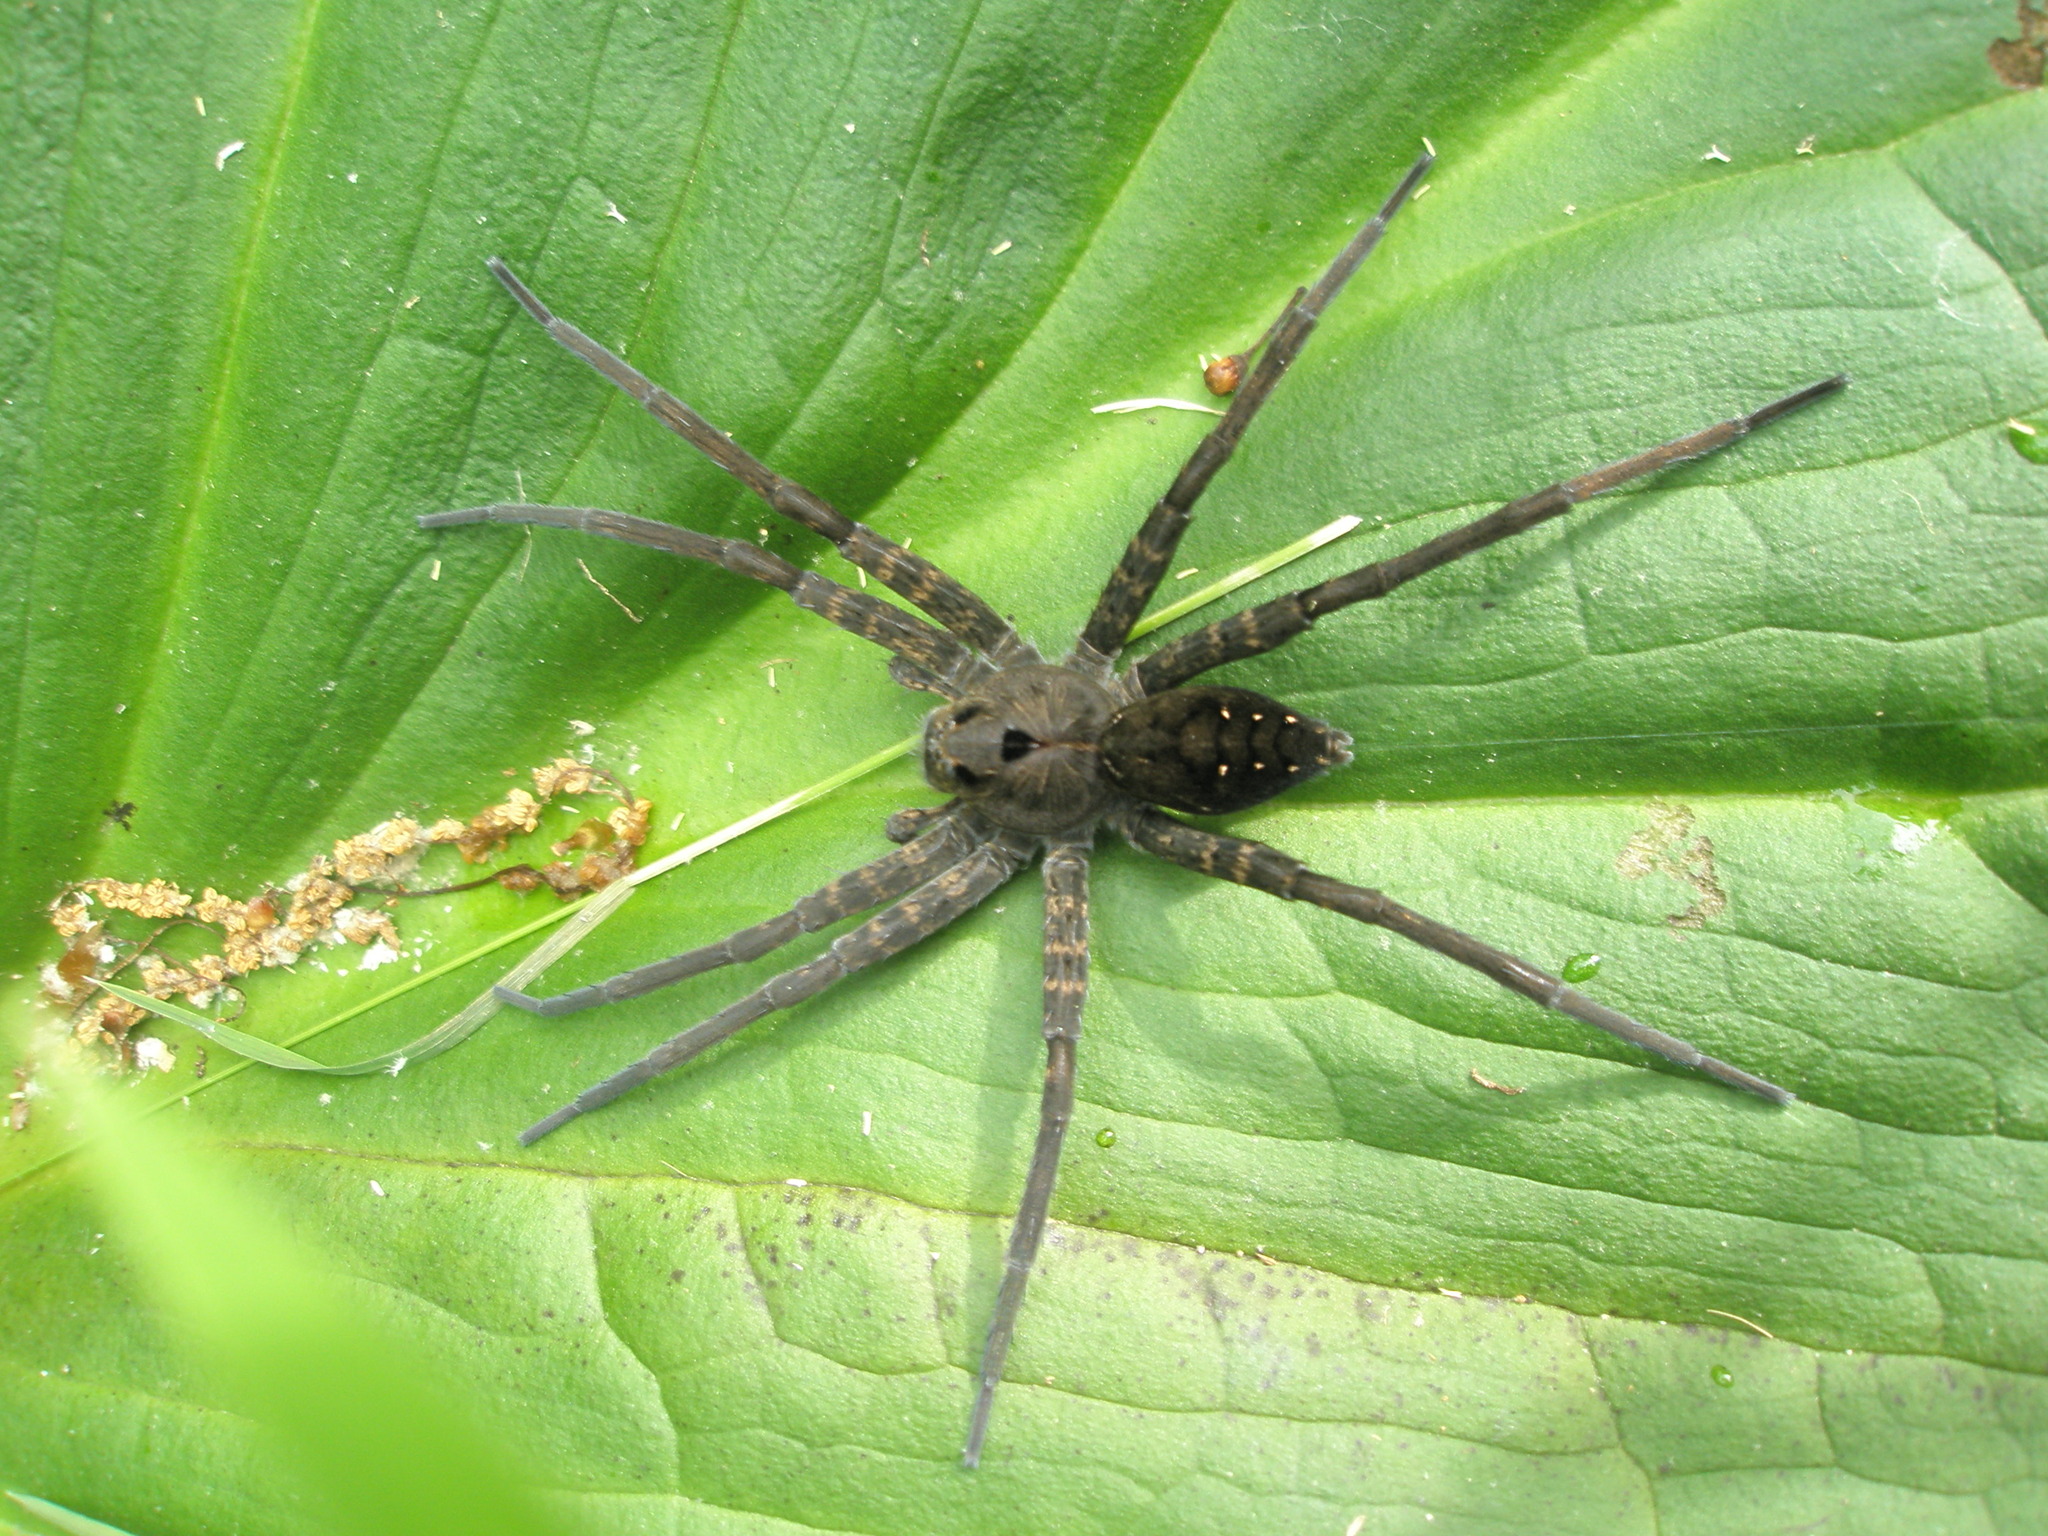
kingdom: Animalia
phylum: Arthropoda
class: Arachnida
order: Araneae
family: Pisauridae
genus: Dolomedes
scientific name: Dolomedes vittatus
